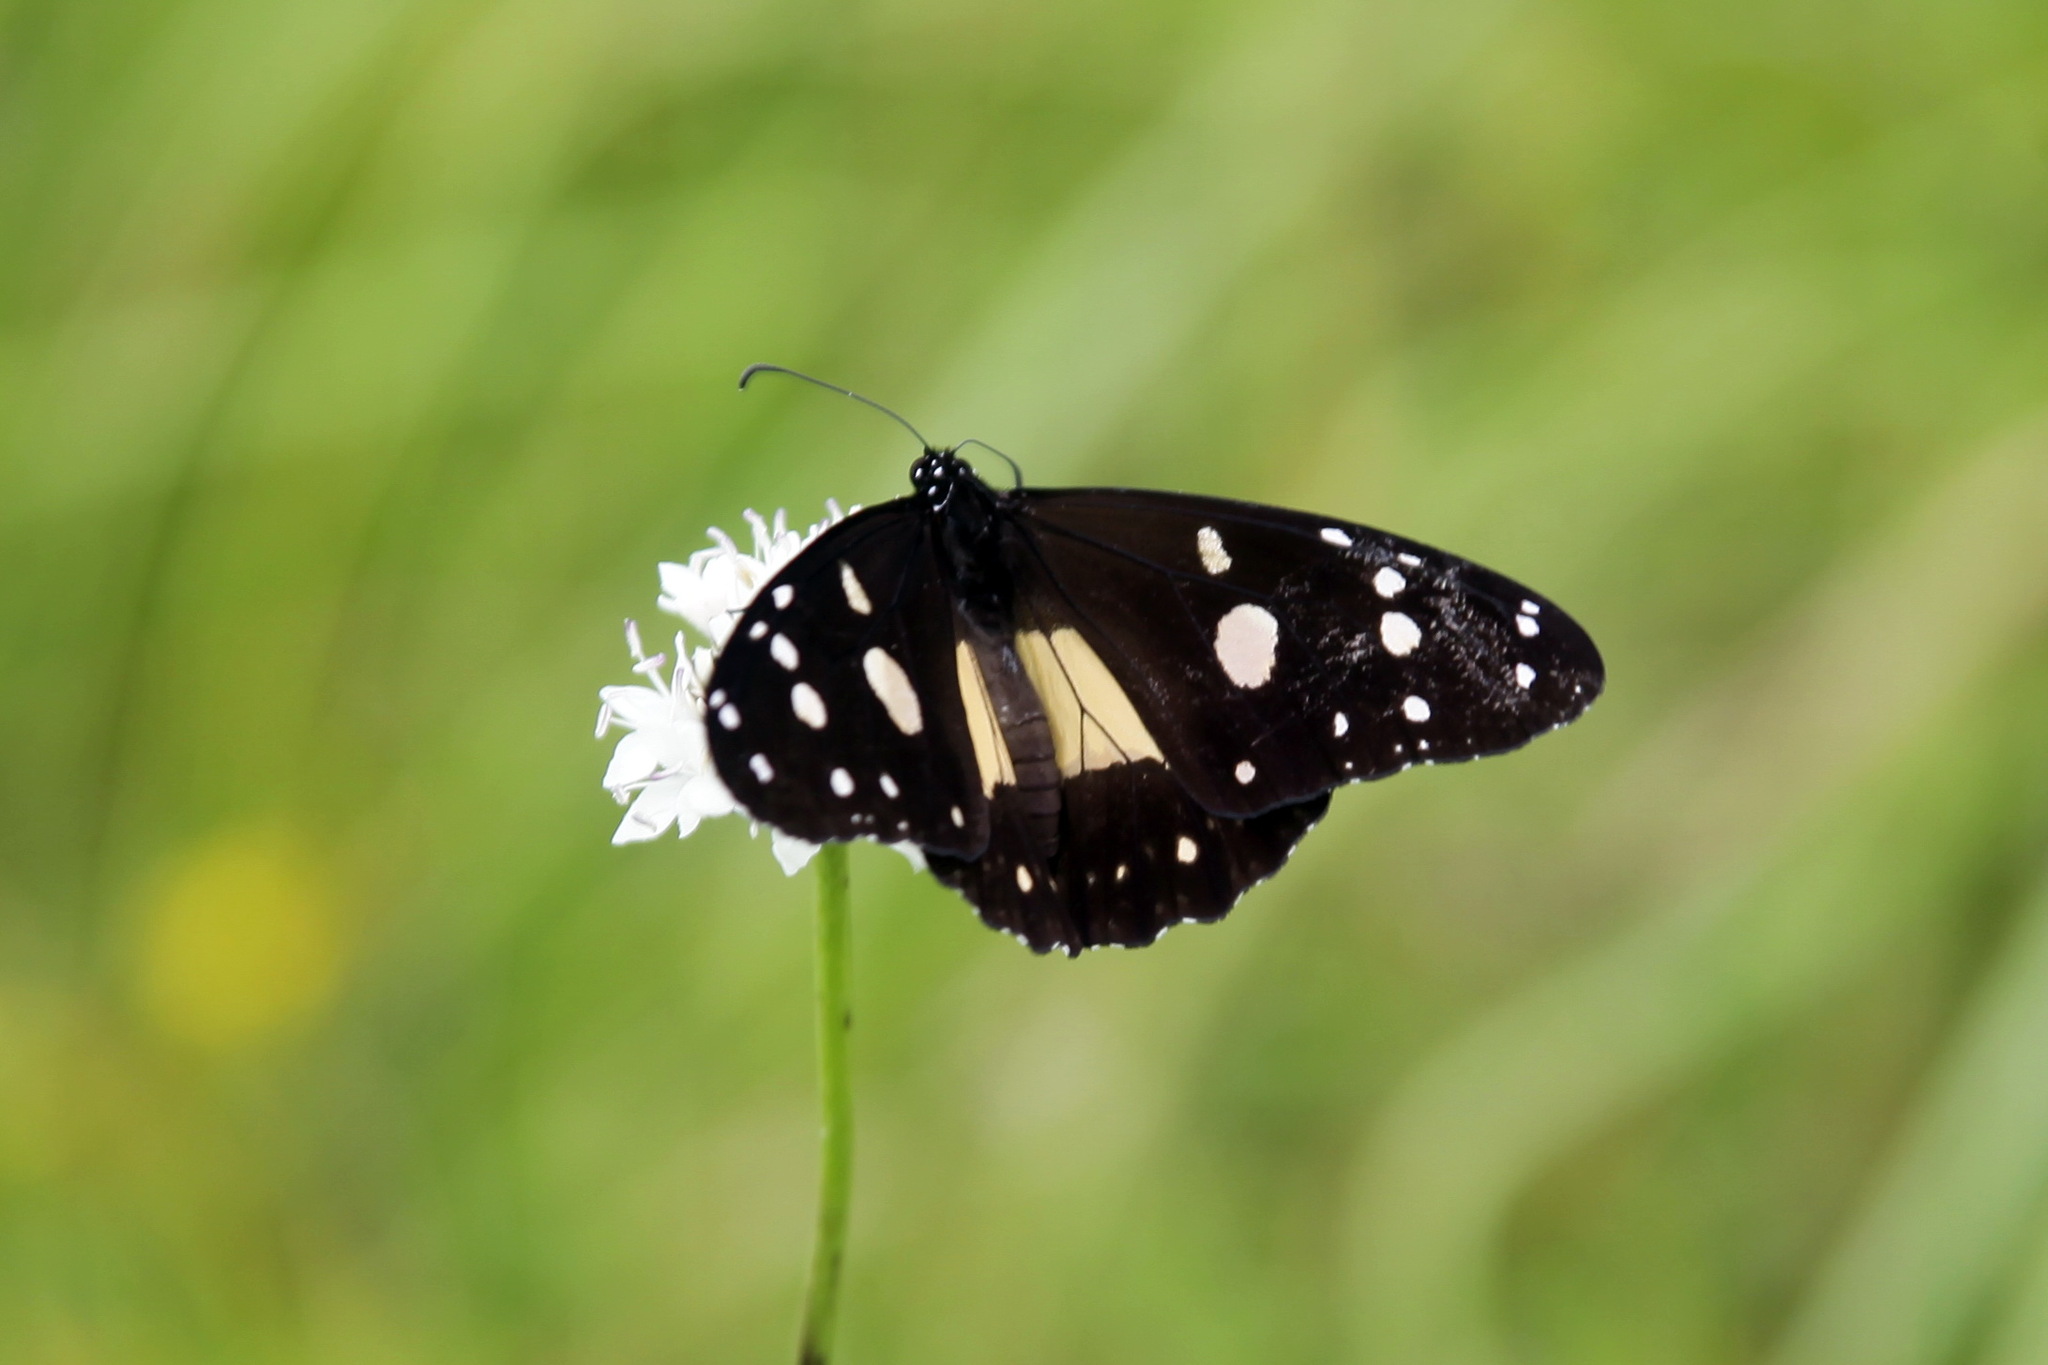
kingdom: Animalia
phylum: Arthropoda
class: Insecta
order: Lepidoptera
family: Nymphalidae
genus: Amauris
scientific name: Amauris echeria
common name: Chief
